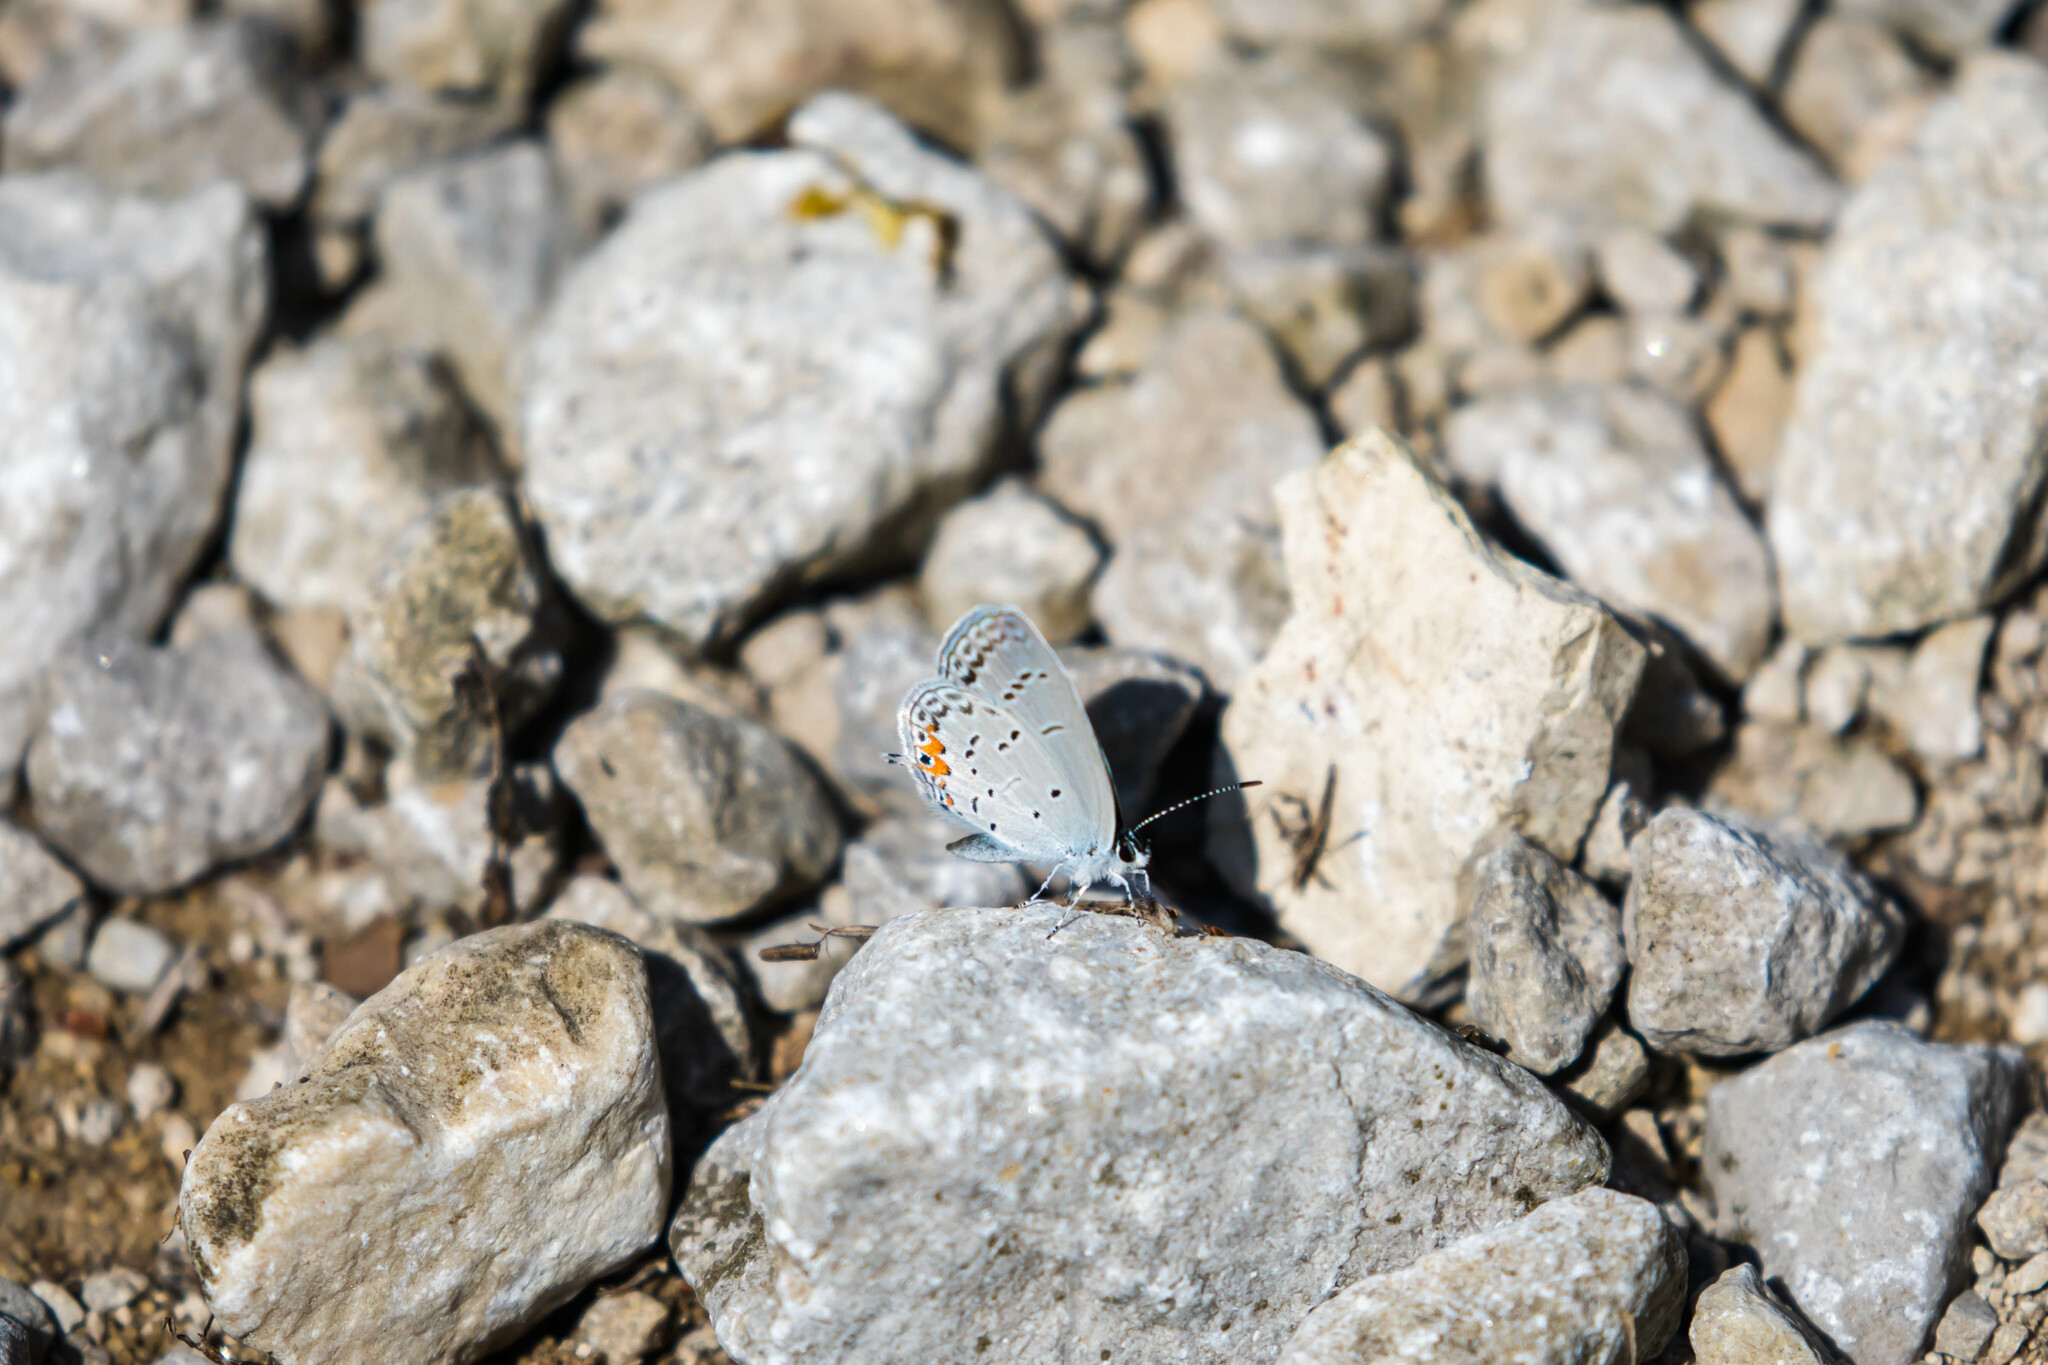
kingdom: Animalia
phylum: Arthropoda
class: Insecta
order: Lepidoptera
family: Lycaenidae
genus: Elkalyce
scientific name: Elkalyce comyntas
